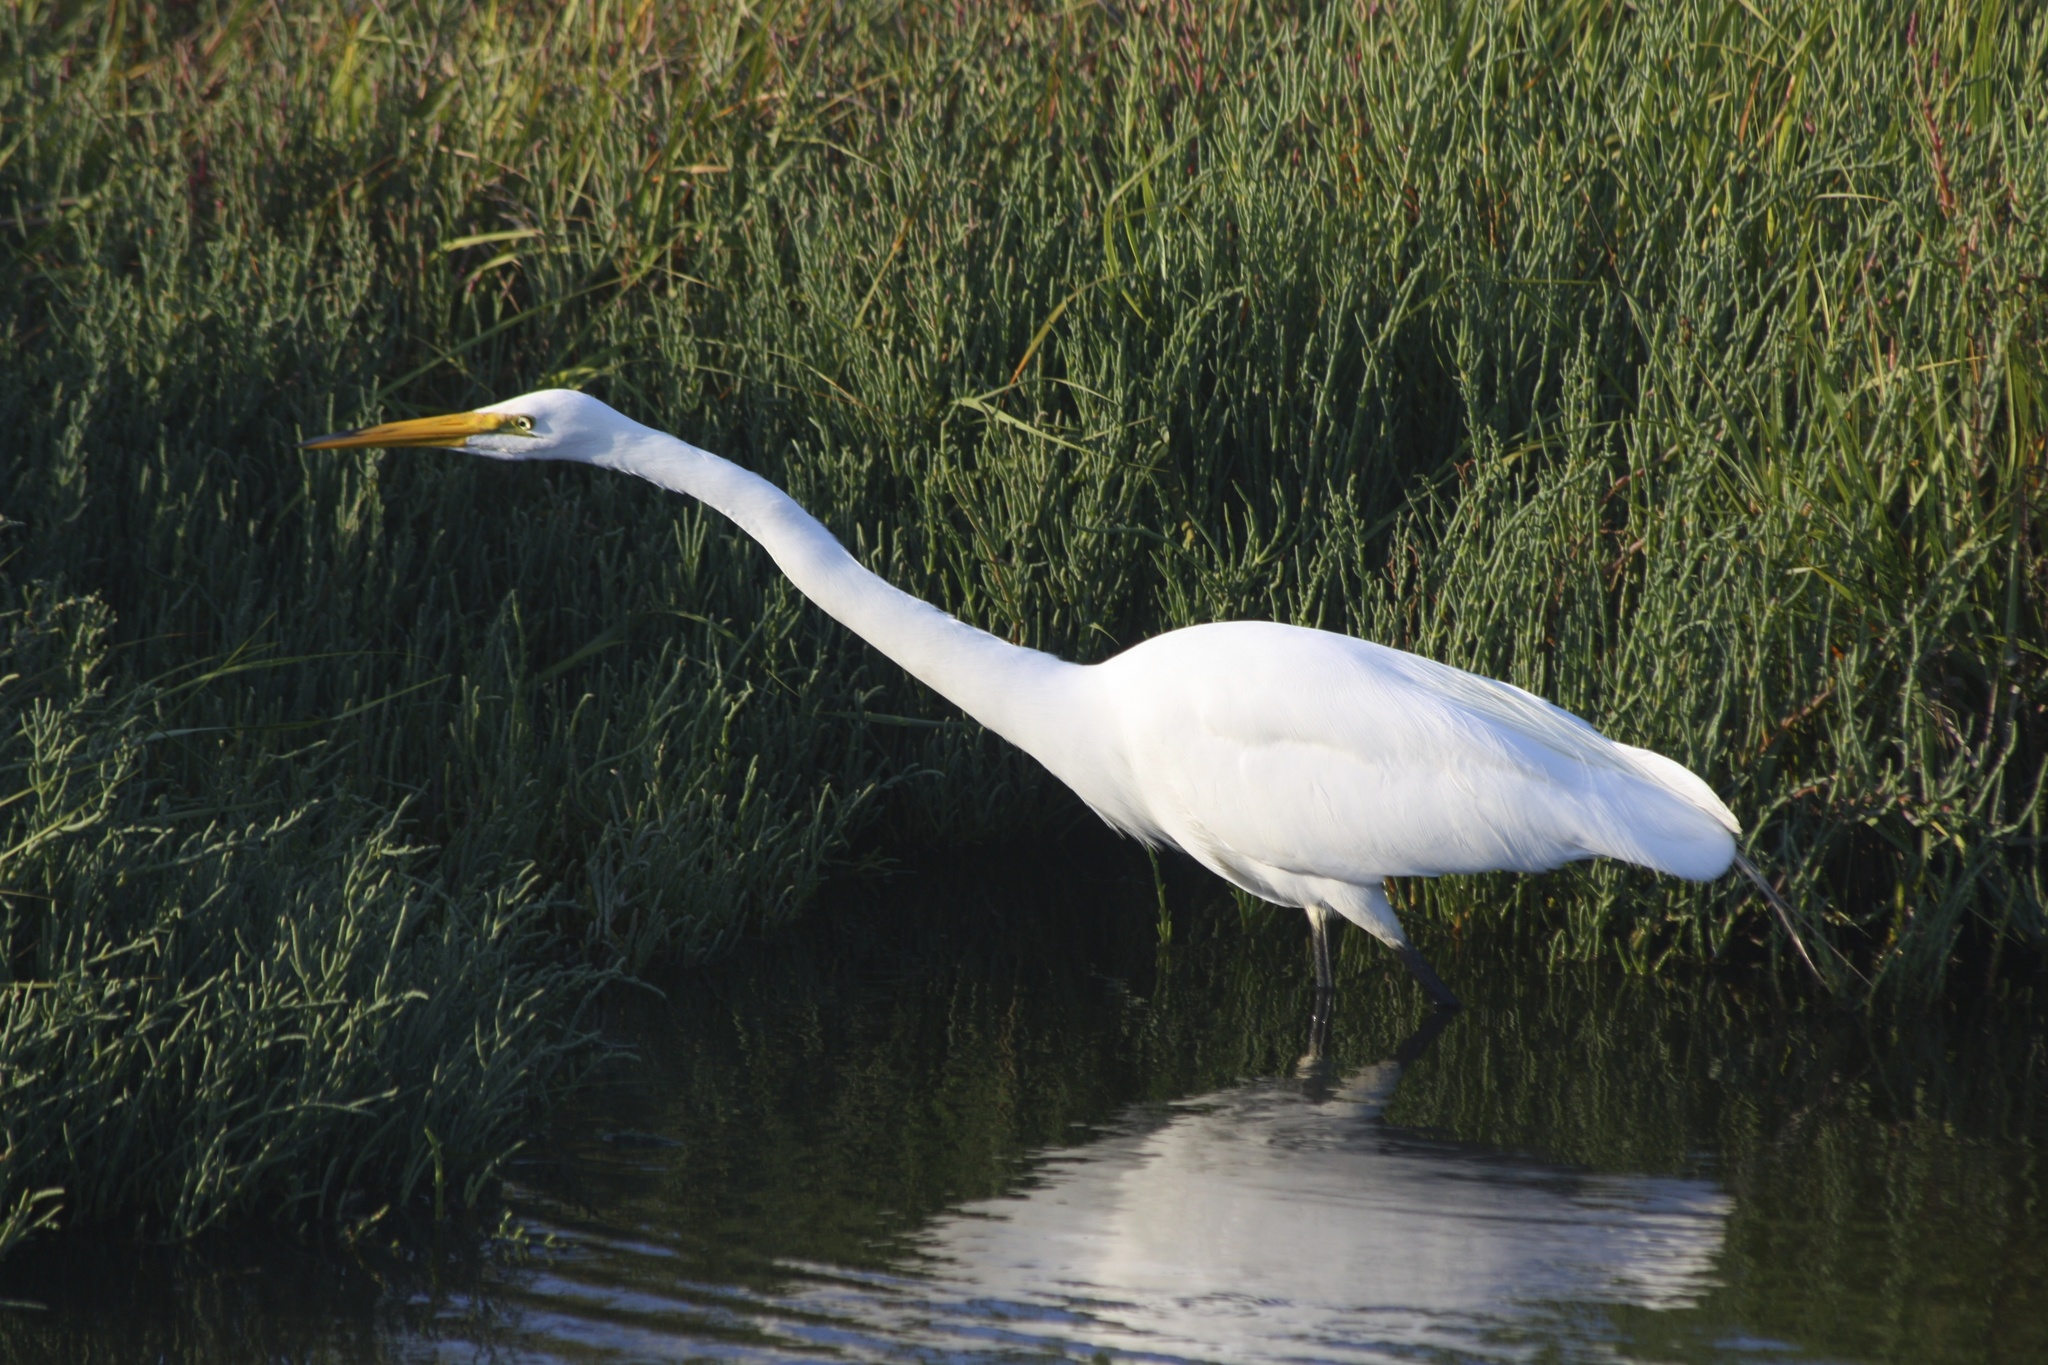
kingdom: Animalia
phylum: Chordata
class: Aves
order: Pelecaniformes
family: Ardeidae
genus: Ardea
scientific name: Ardea alba
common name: Great egret
